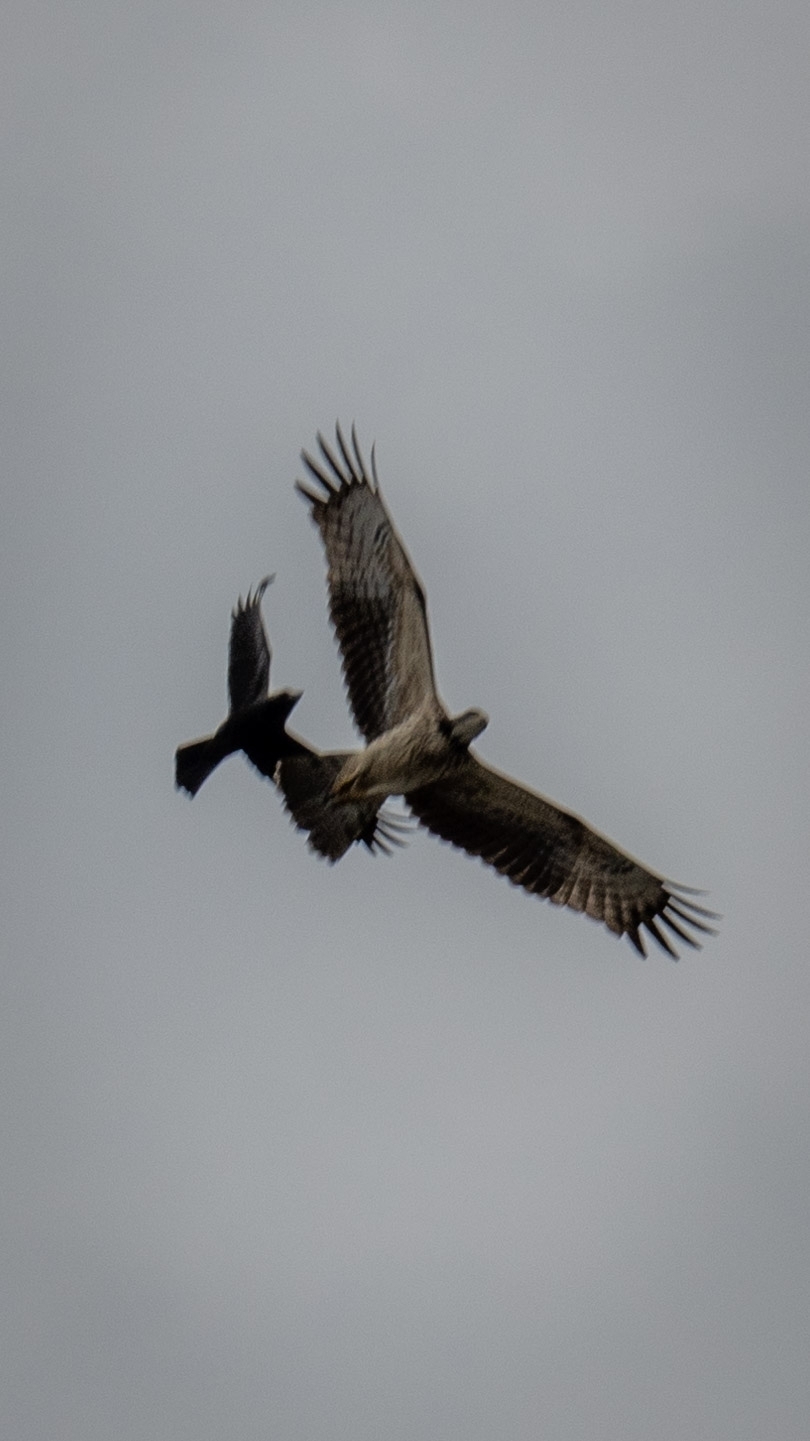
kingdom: Animalia
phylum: Chordata
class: Aves
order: Accipitriformes
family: Accipitridae
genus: Pernis
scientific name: Pernis ptilorhynchus
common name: Crested honey buzzard
